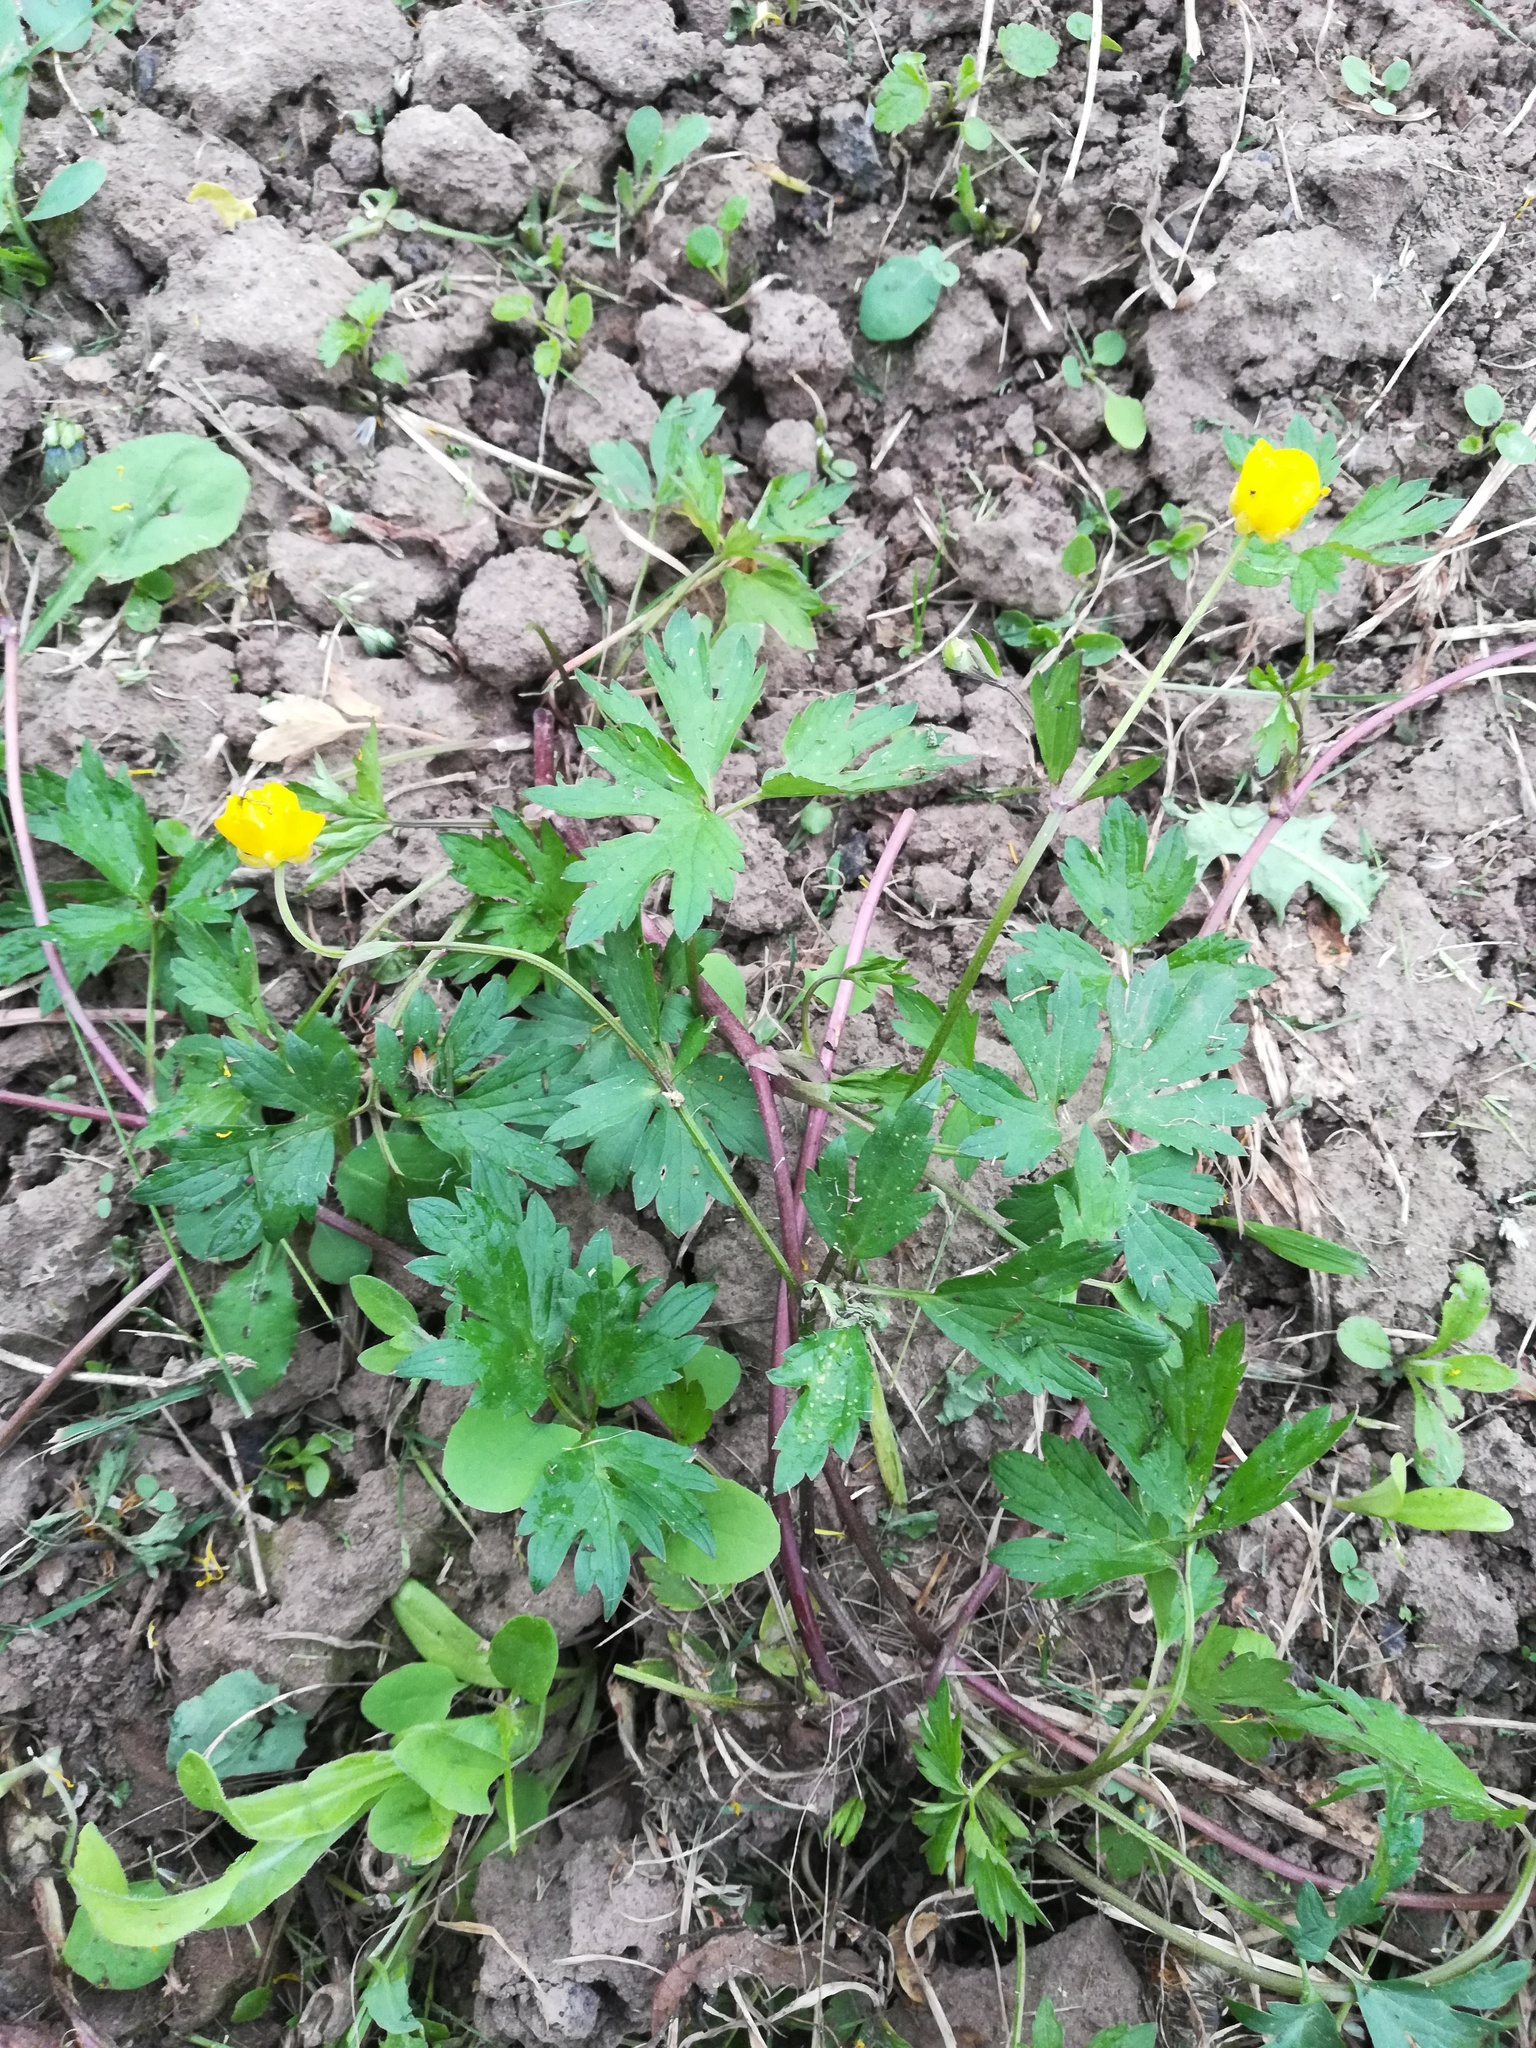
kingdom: Plantae
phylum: Tracheophyta
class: Magnoliopsida
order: Ranunculales
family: Ranunculaceae
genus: Ranunculus
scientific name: Ranunculus repens
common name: Creeping buttercup
